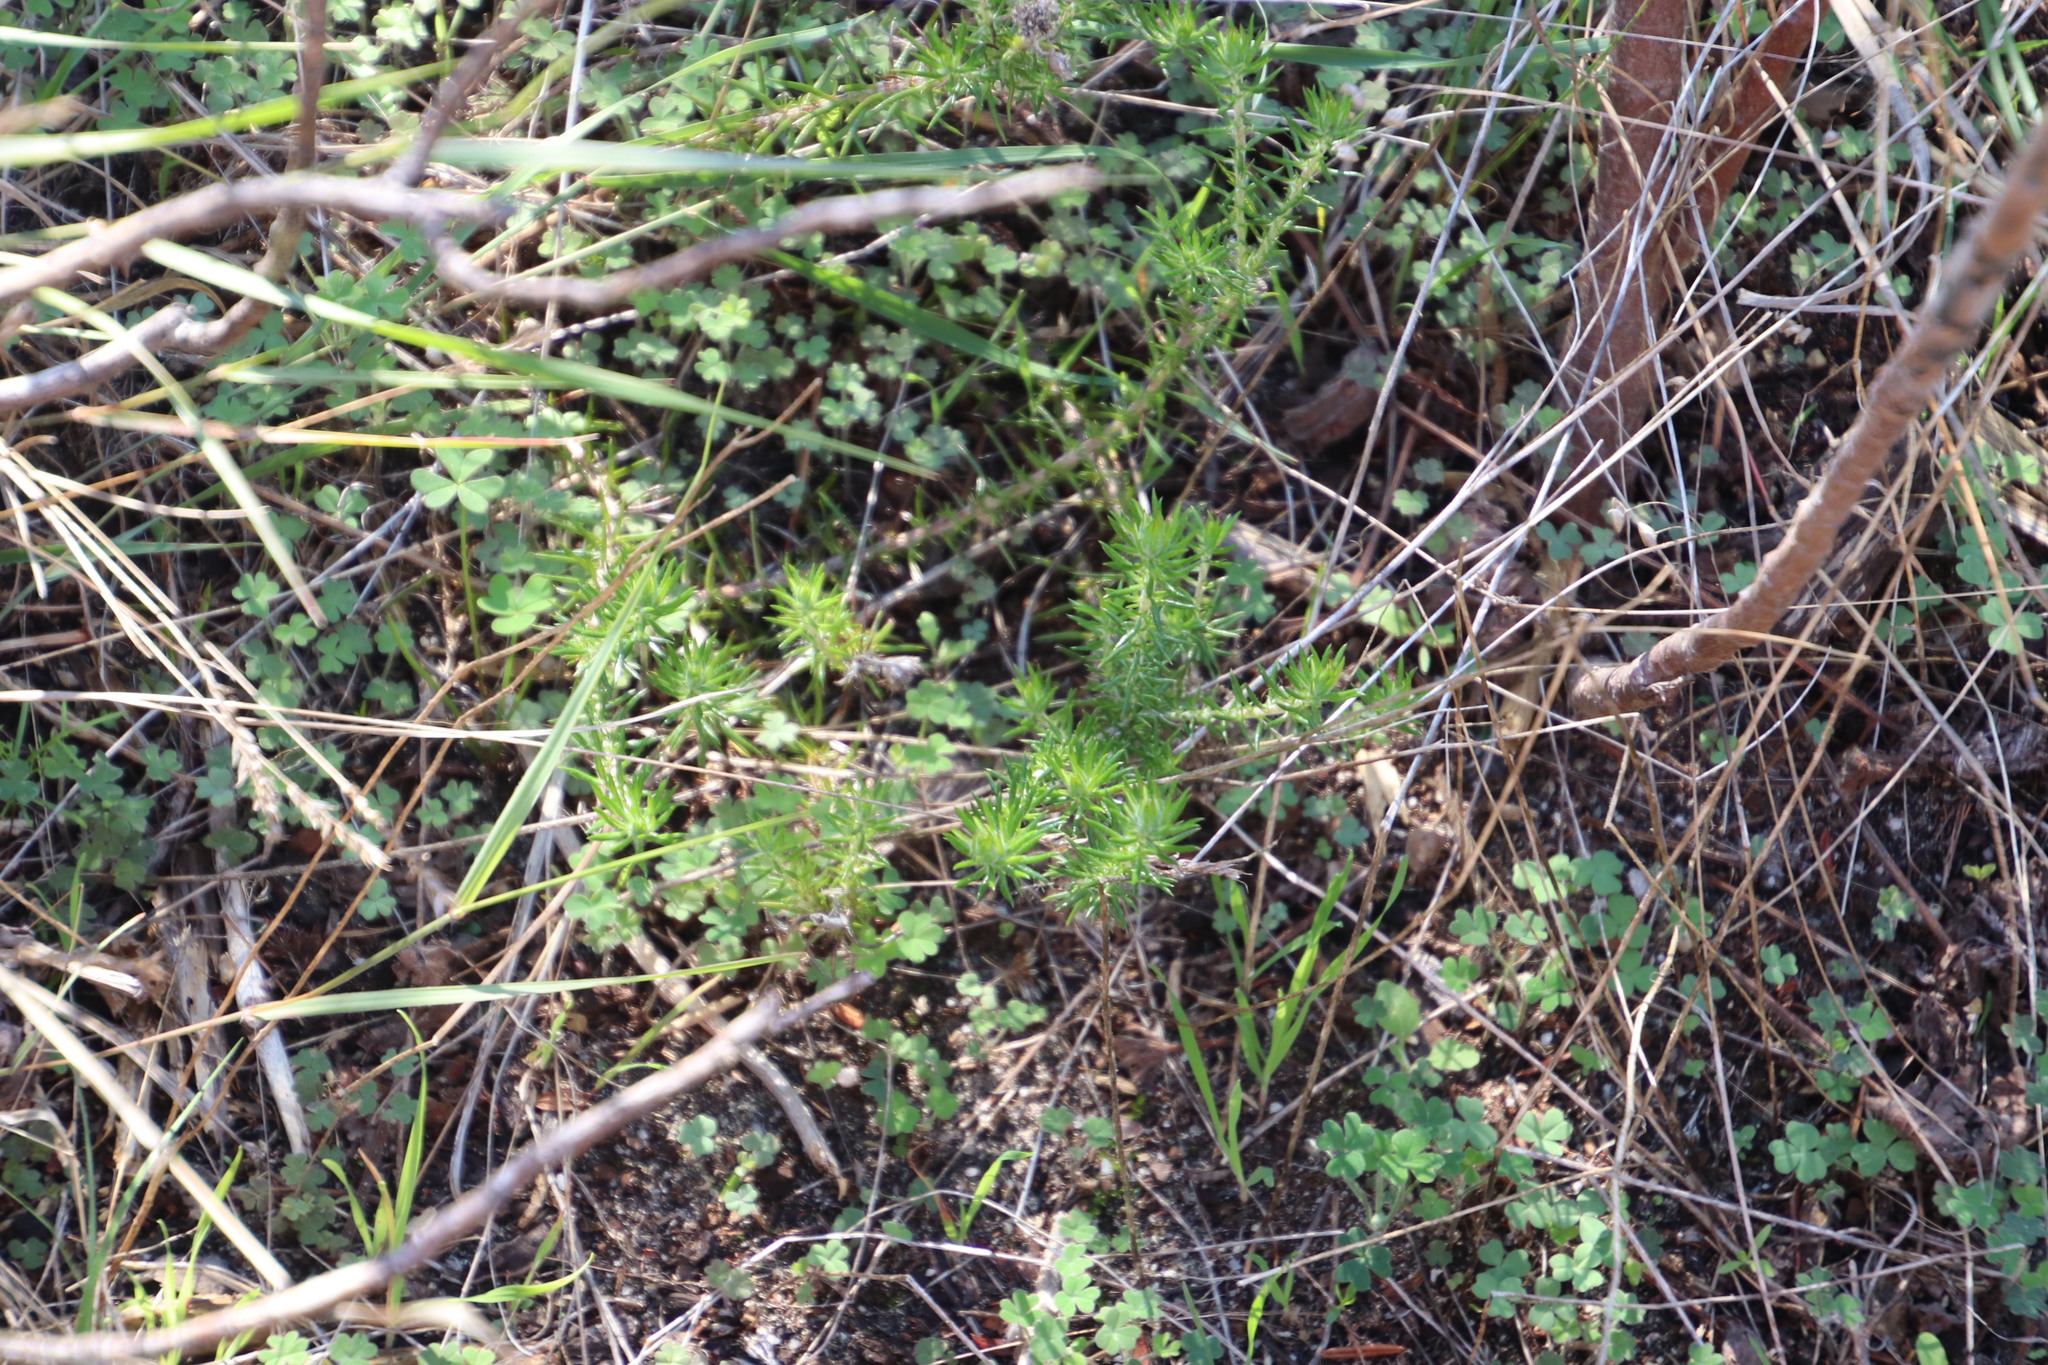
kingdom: Plantae
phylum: Tracheophyta
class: Magnoliopsida
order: Fabales
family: Fabaceae
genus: Aspalathus
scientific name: Aspalathus retroflexa
